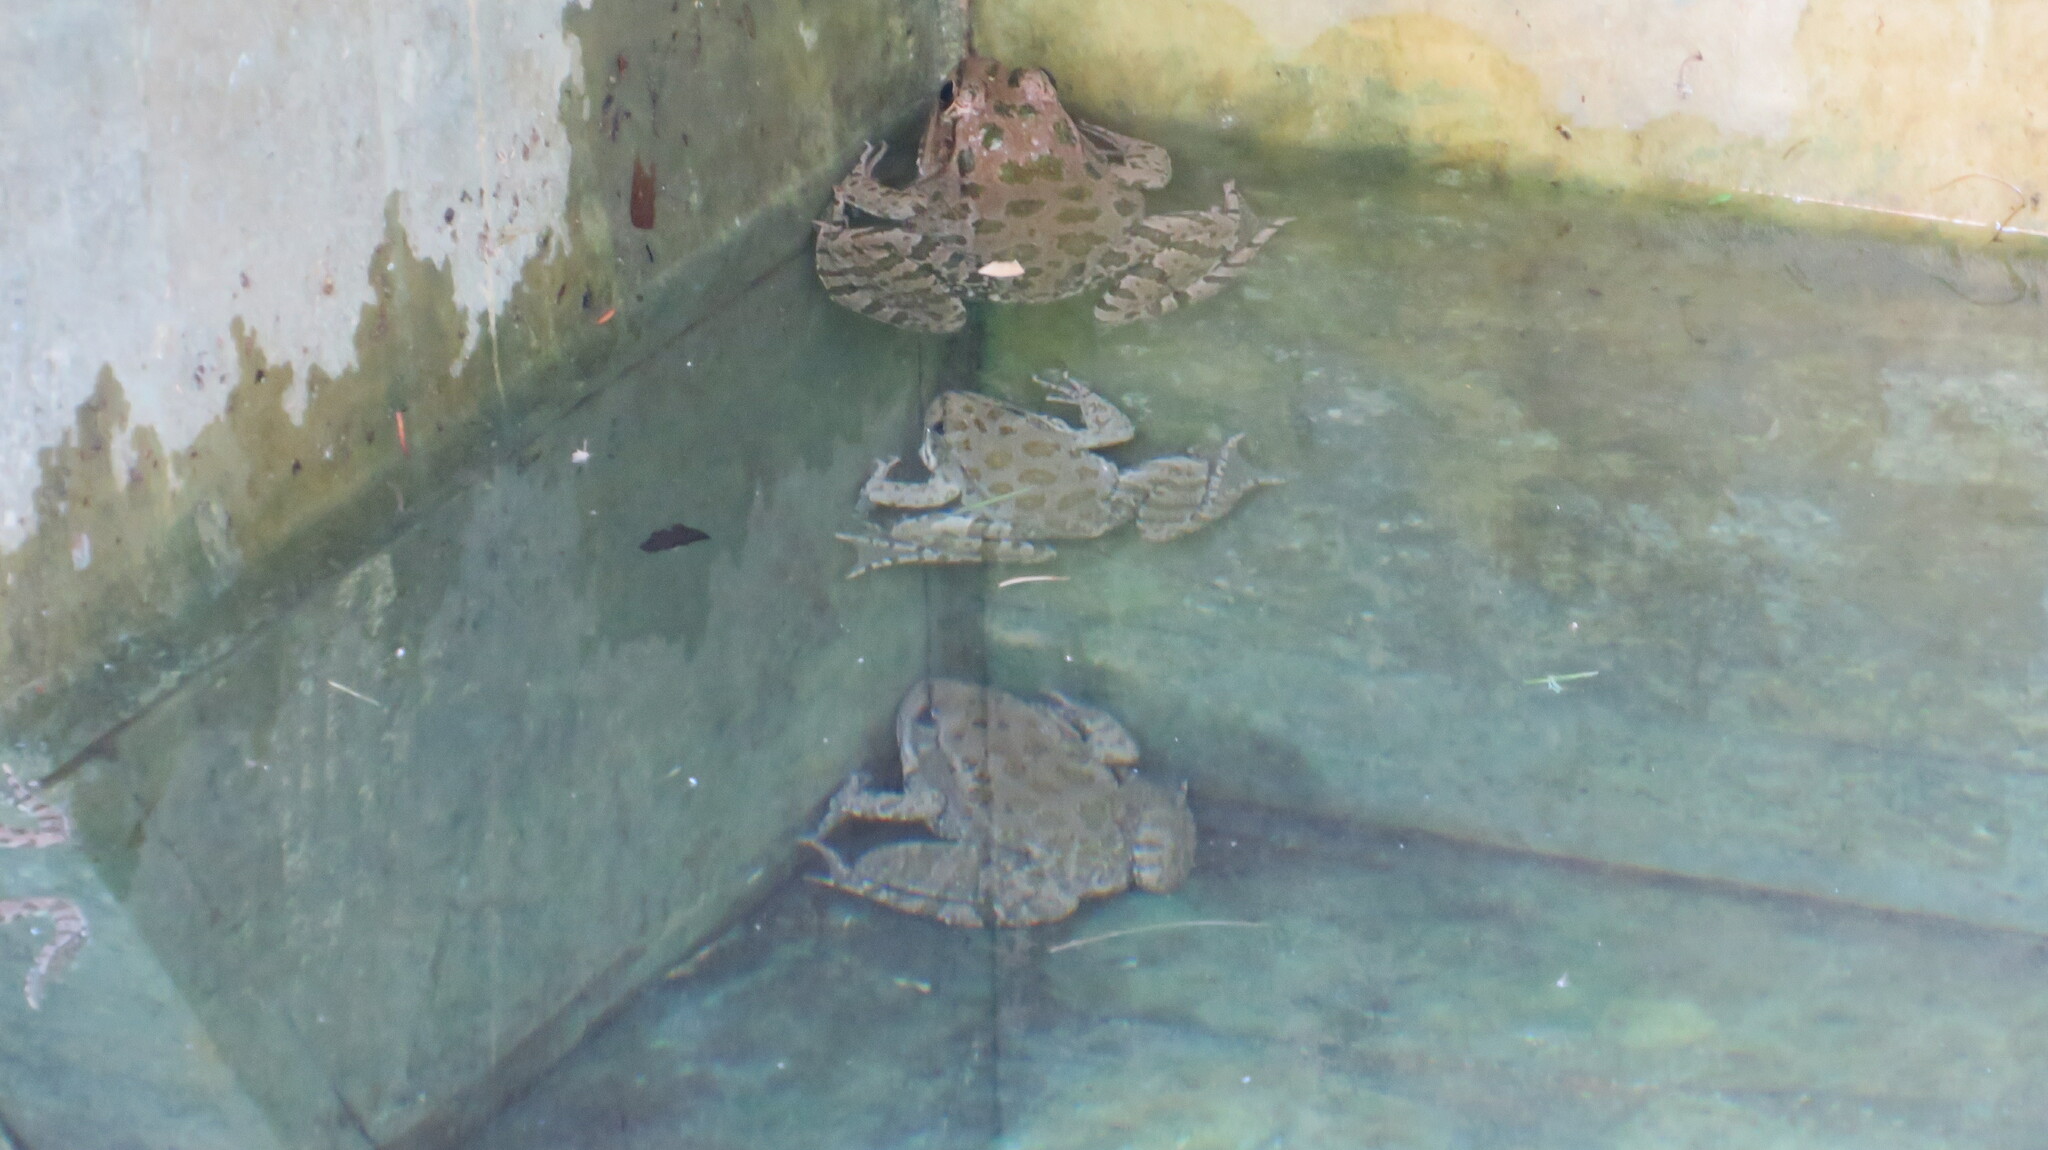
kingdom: Animalia
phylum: Chordata
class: Amphibia
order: Anura
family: Ranidae
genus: Pelophylax
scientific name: Pelophylax ridibundus
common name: Marsh frog
